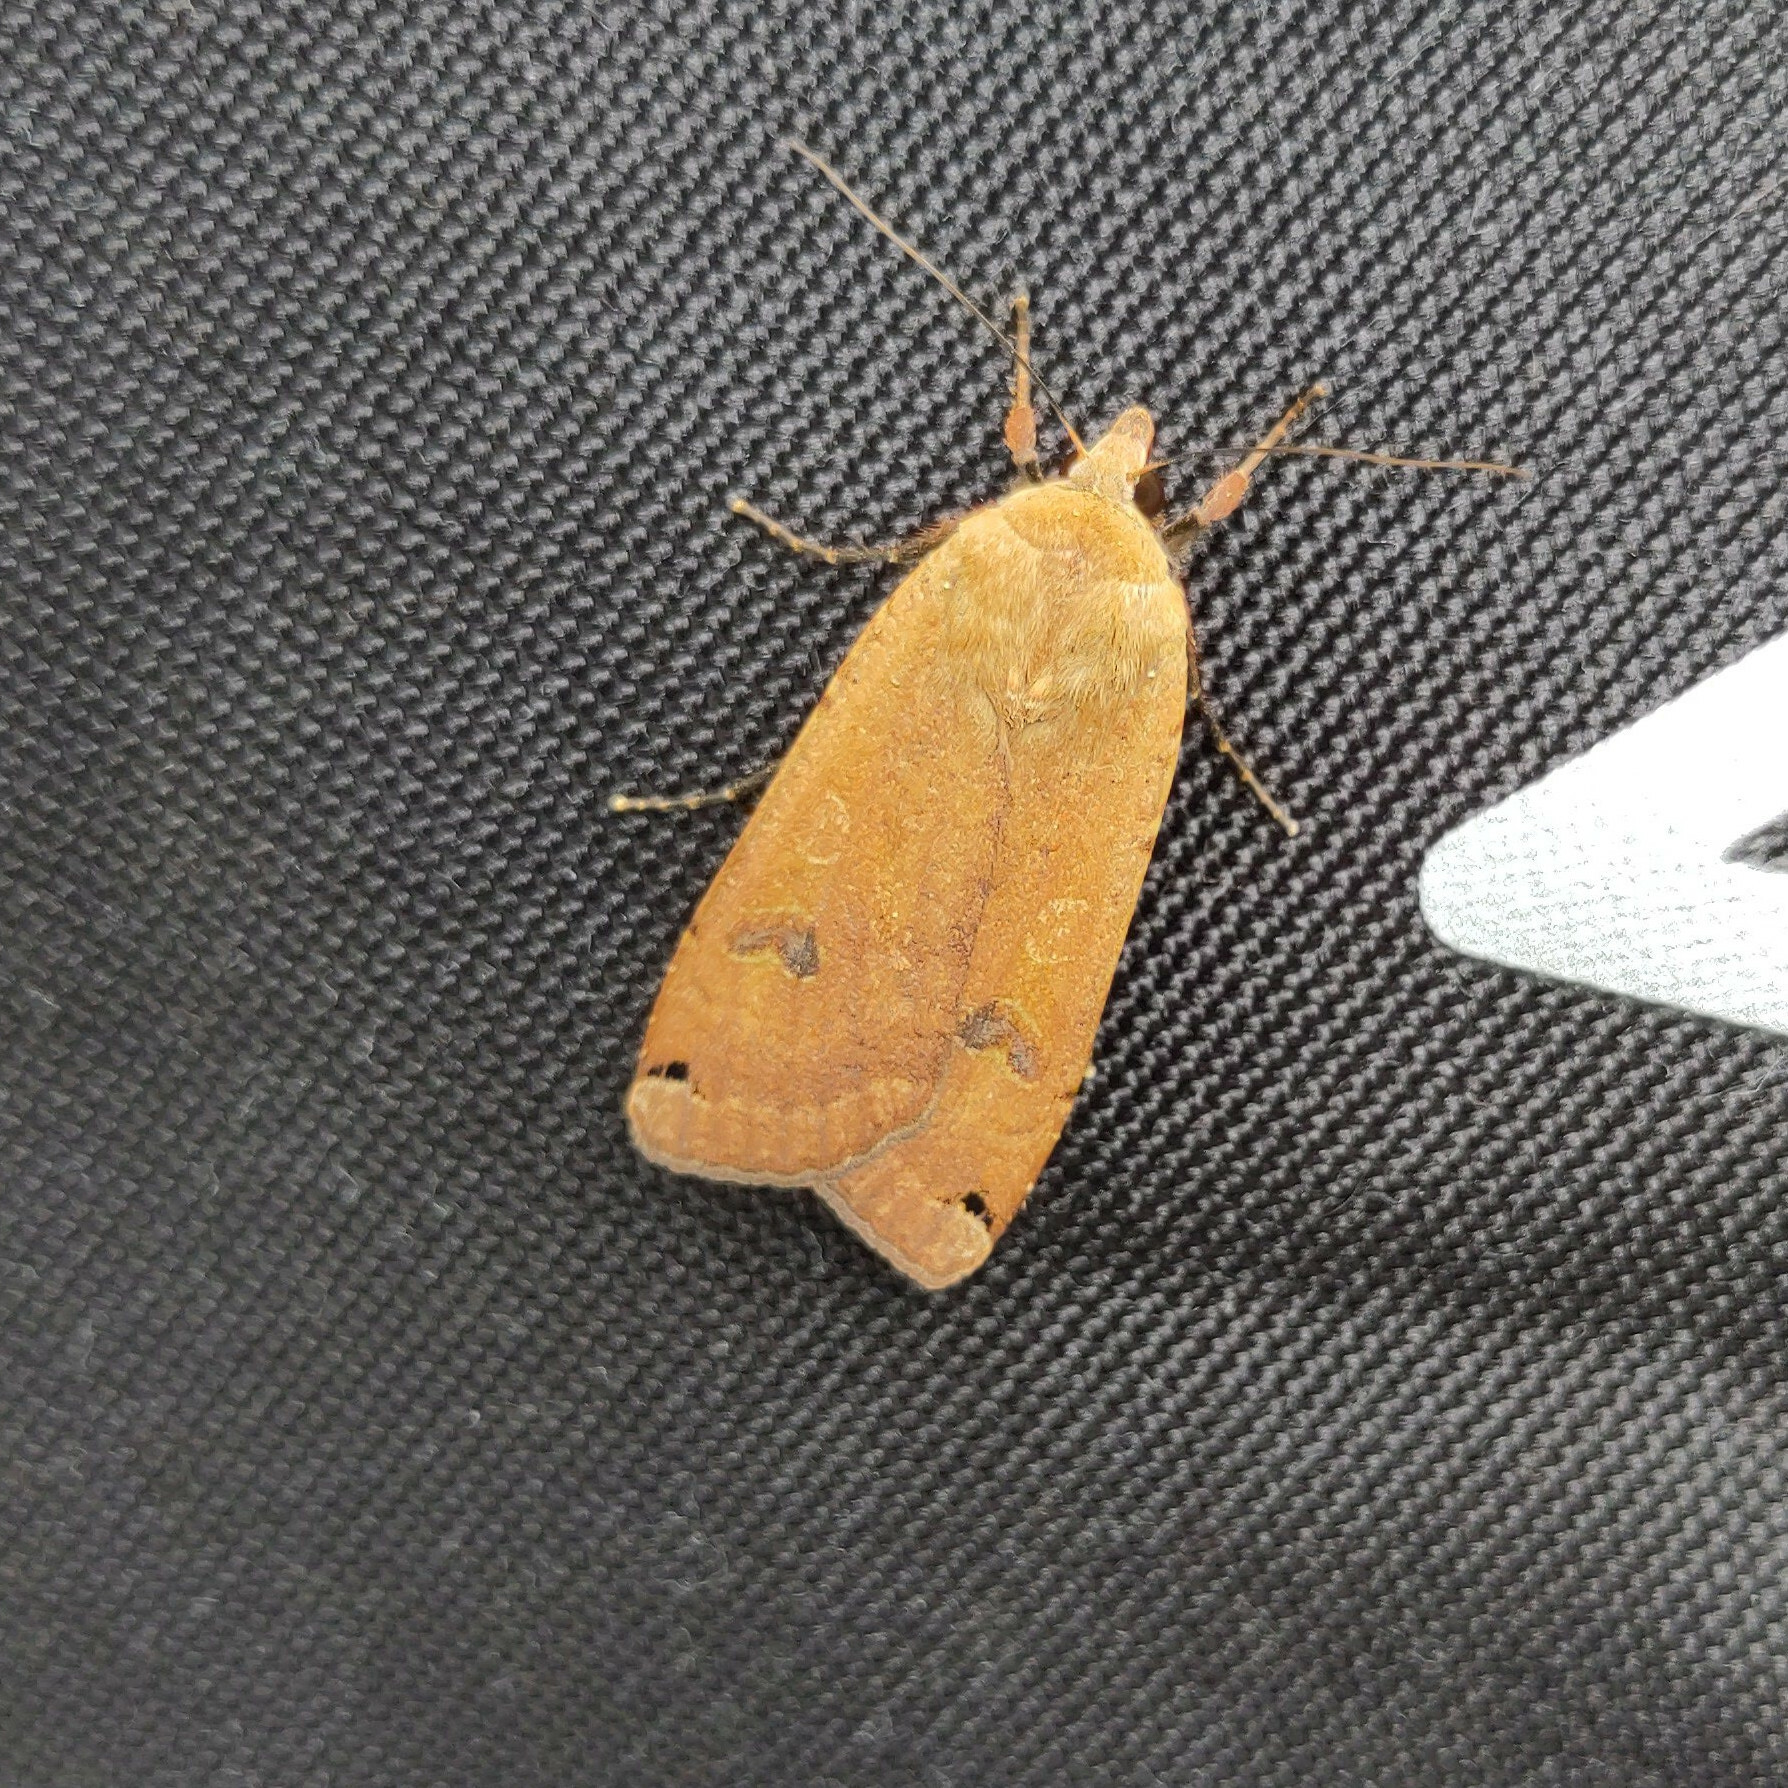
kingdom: Animalia
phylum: Arthropoda
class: Insecta
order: Lepidoptera
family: Noctuidae
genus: Noctua
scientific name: Noctua pronuba
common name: Large yellow underwing
